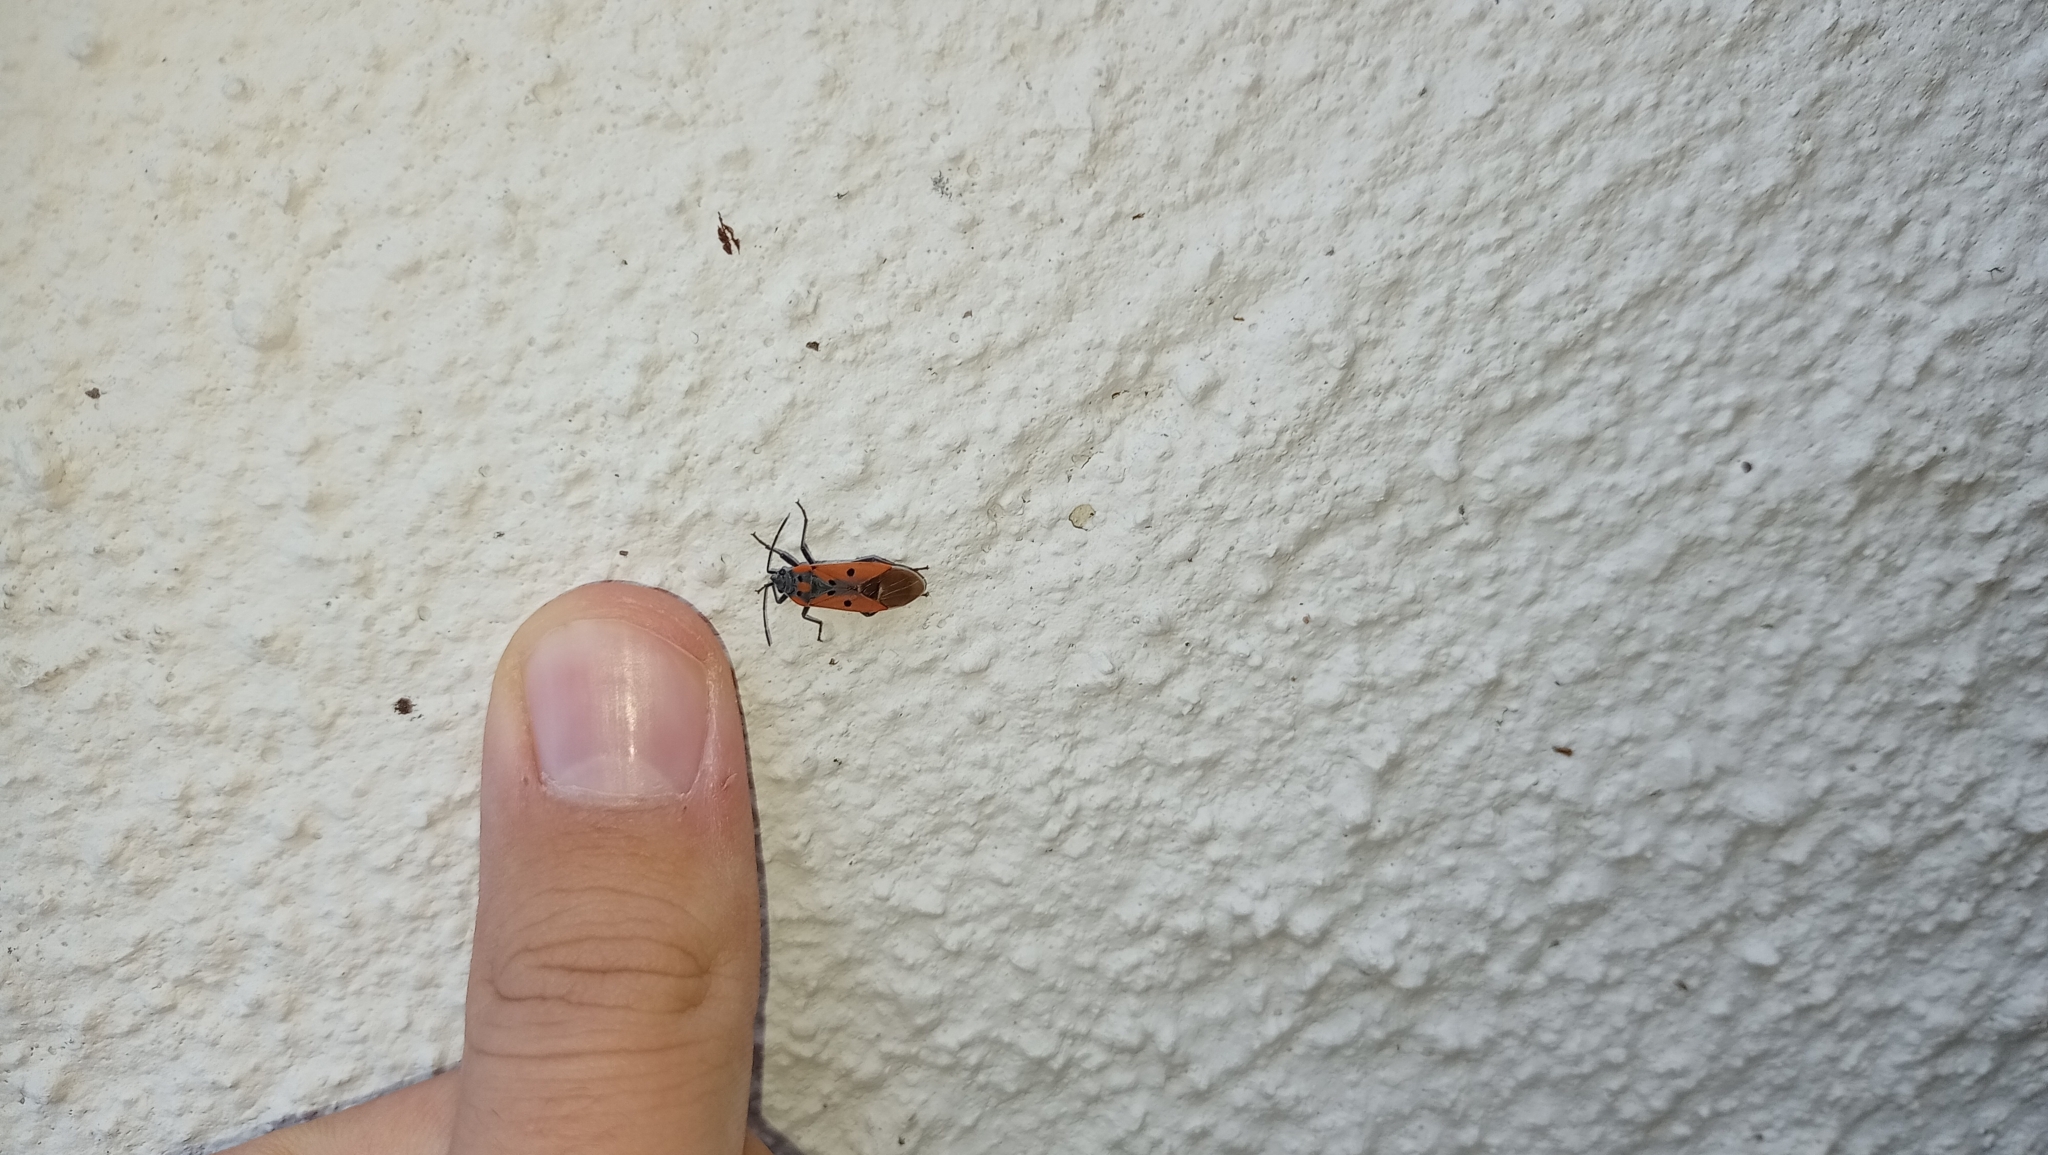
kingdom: Animalia
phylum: Arthropoda
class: Insecta
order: Hemiptera
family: Lygaeidae
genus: Lygaeus
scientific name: Lygaeus creticus
